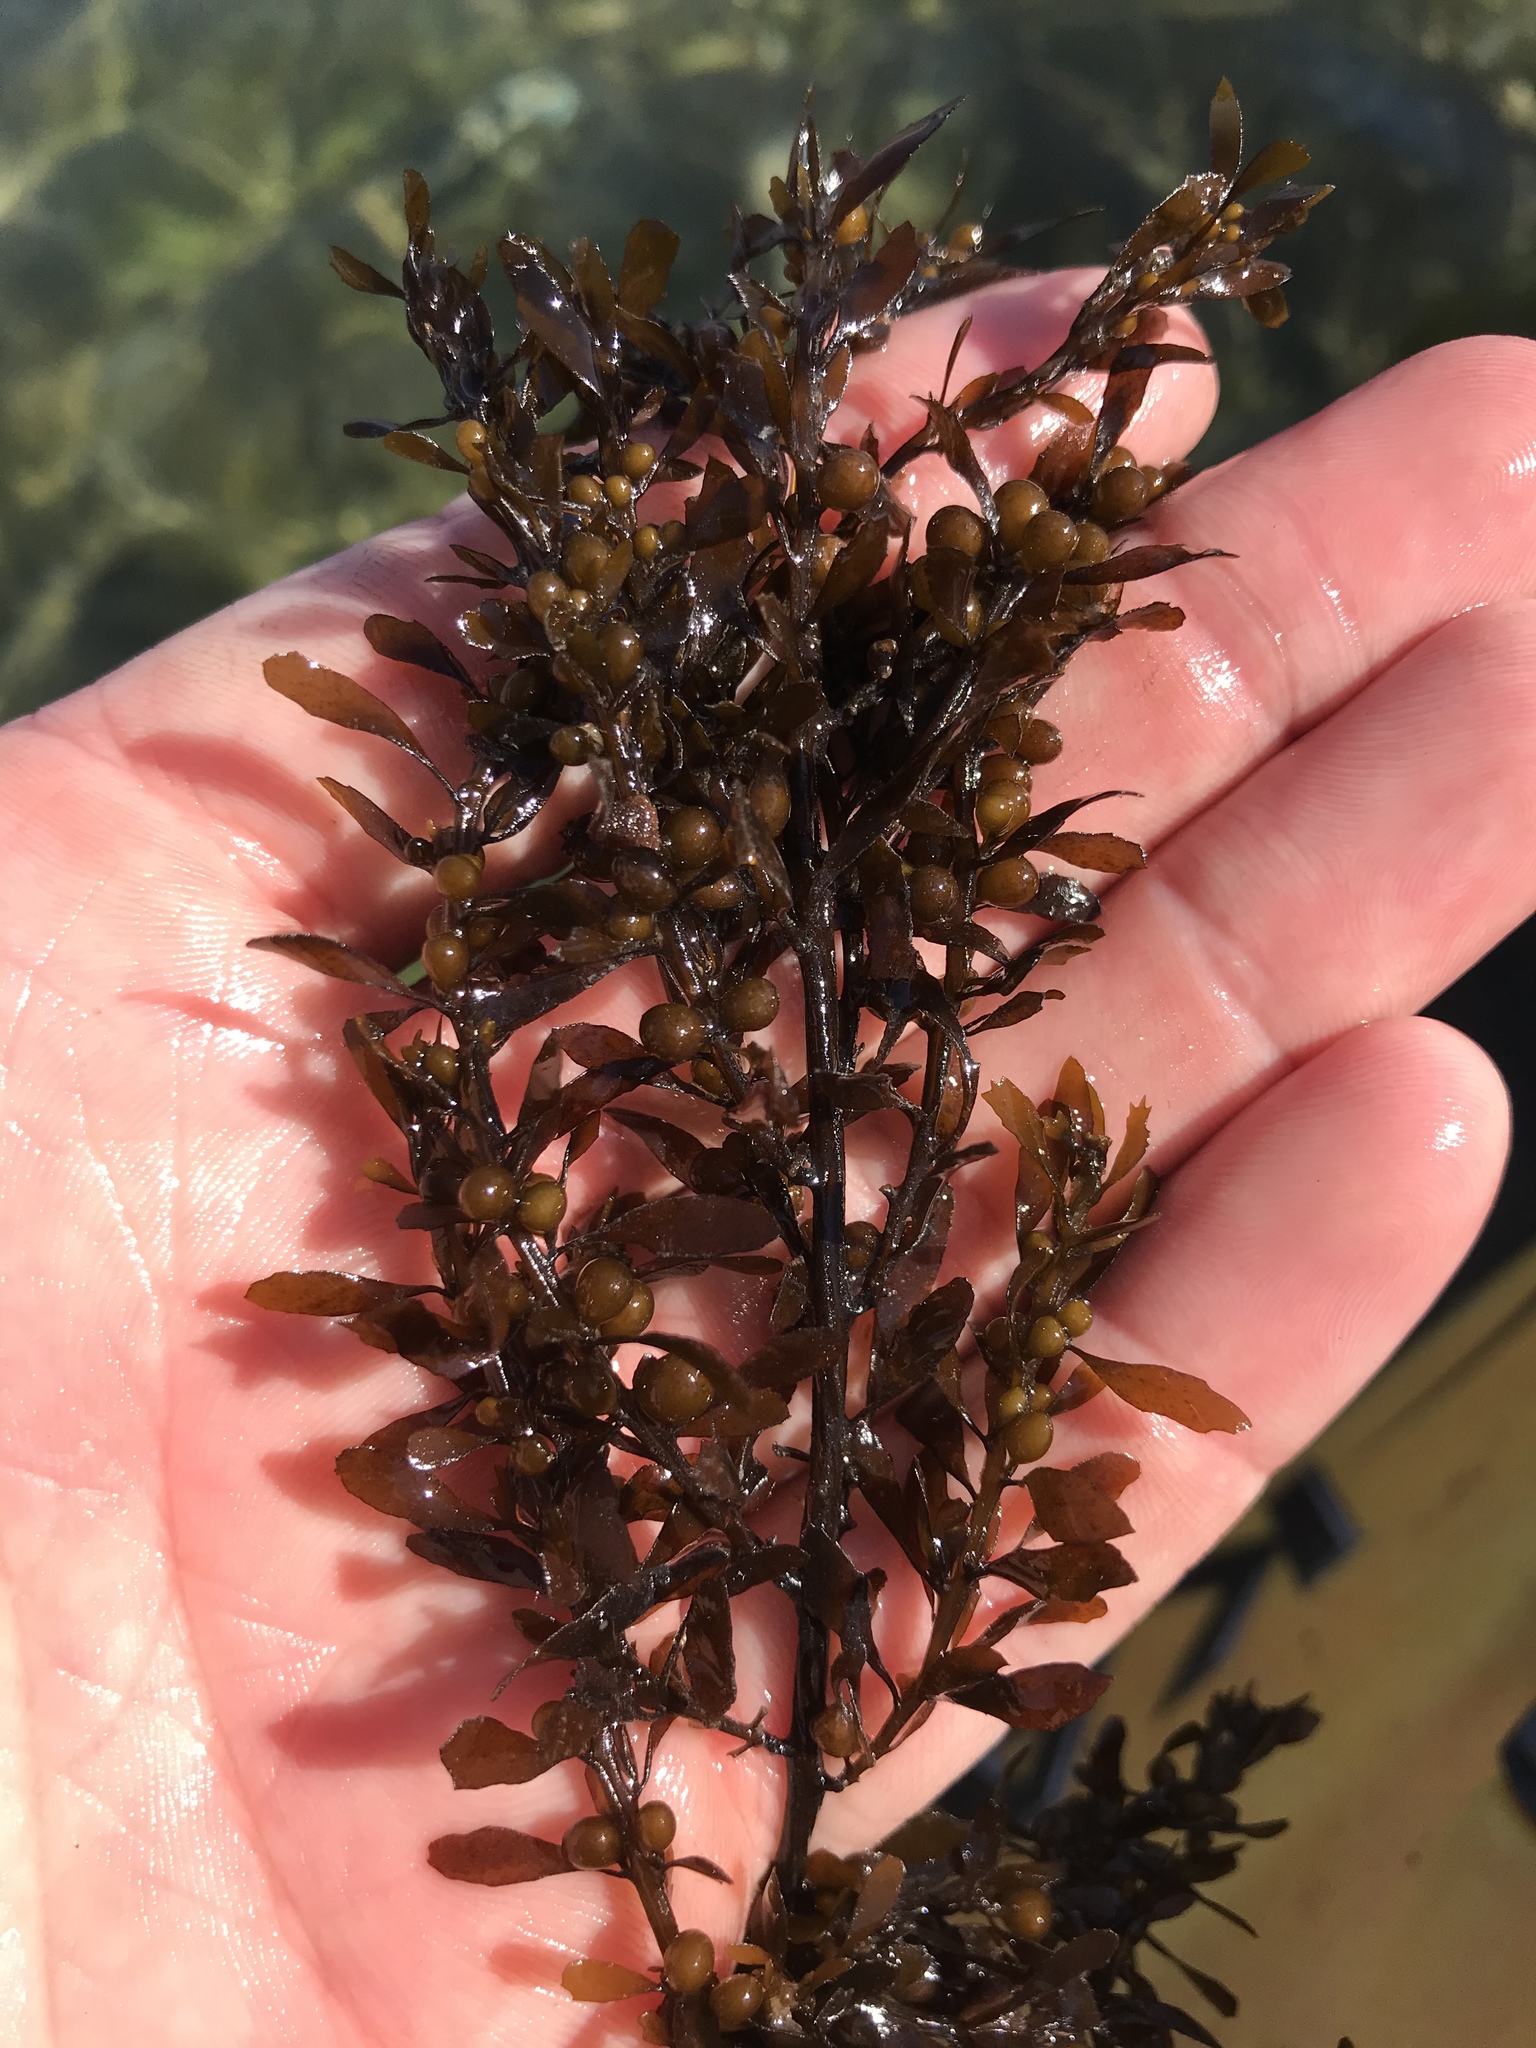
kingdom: Chromista
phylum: Ochrophyta
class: Phaeophyceae
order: Fucales
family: Sargassaceae
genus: Sargassum
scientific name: Sargassum muticum
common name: Japweed
